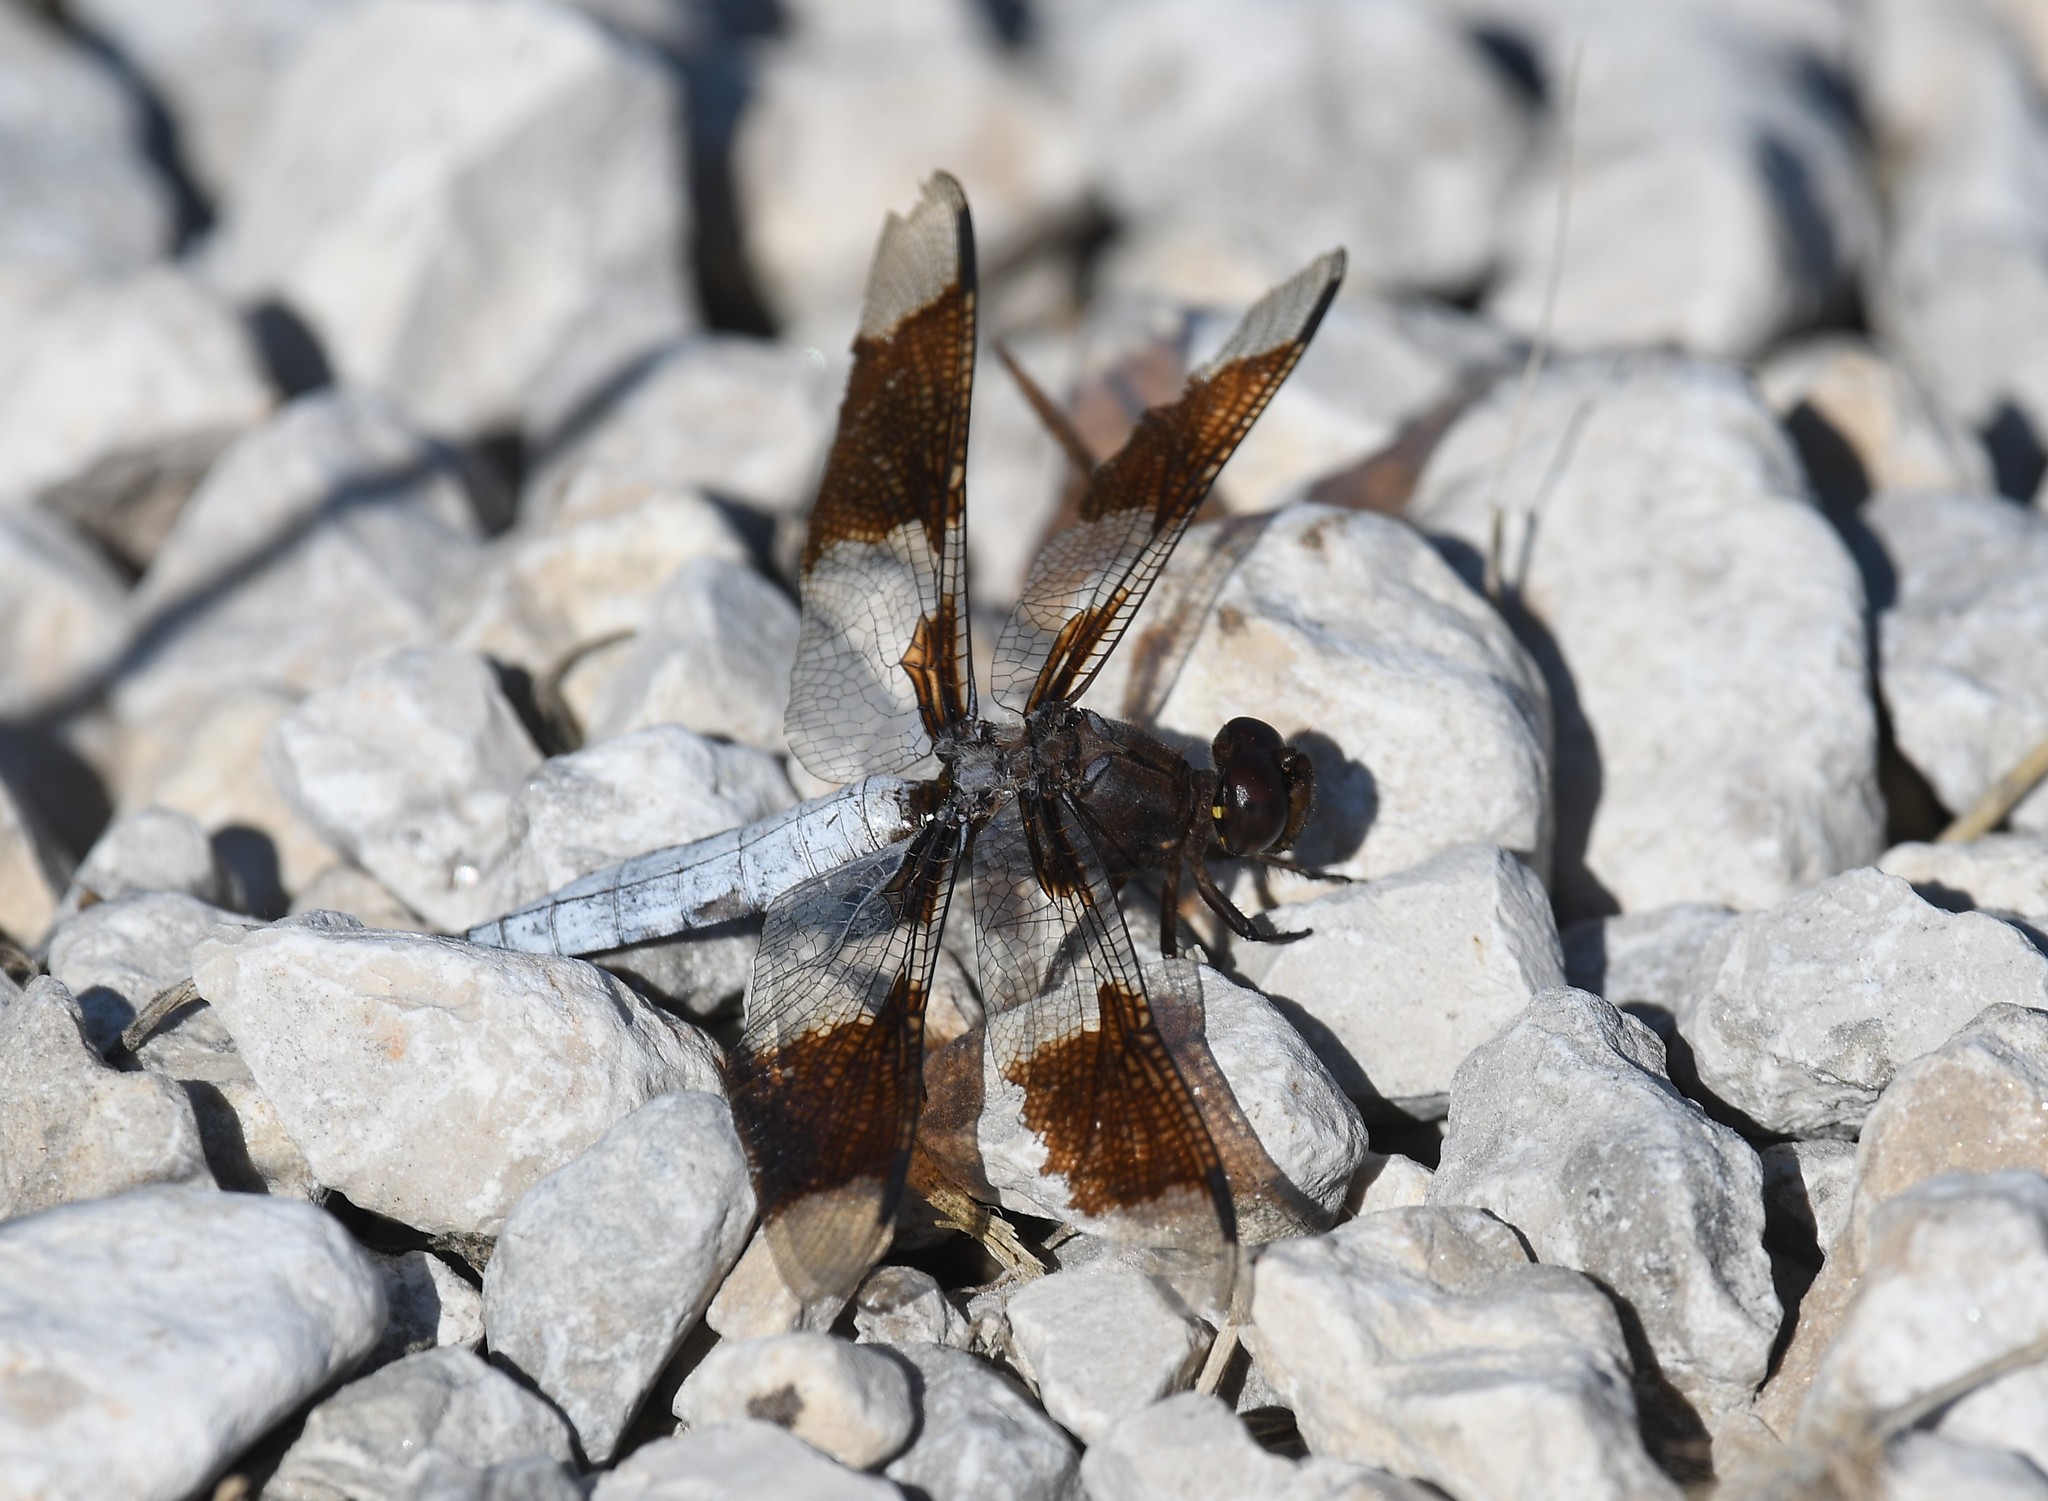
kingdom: Animalia
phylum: Arthropoda
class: Insecta
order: Odonata
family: Libellulidae
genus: Plathemis
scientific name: Plathemis lydia
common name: Common whitetail
